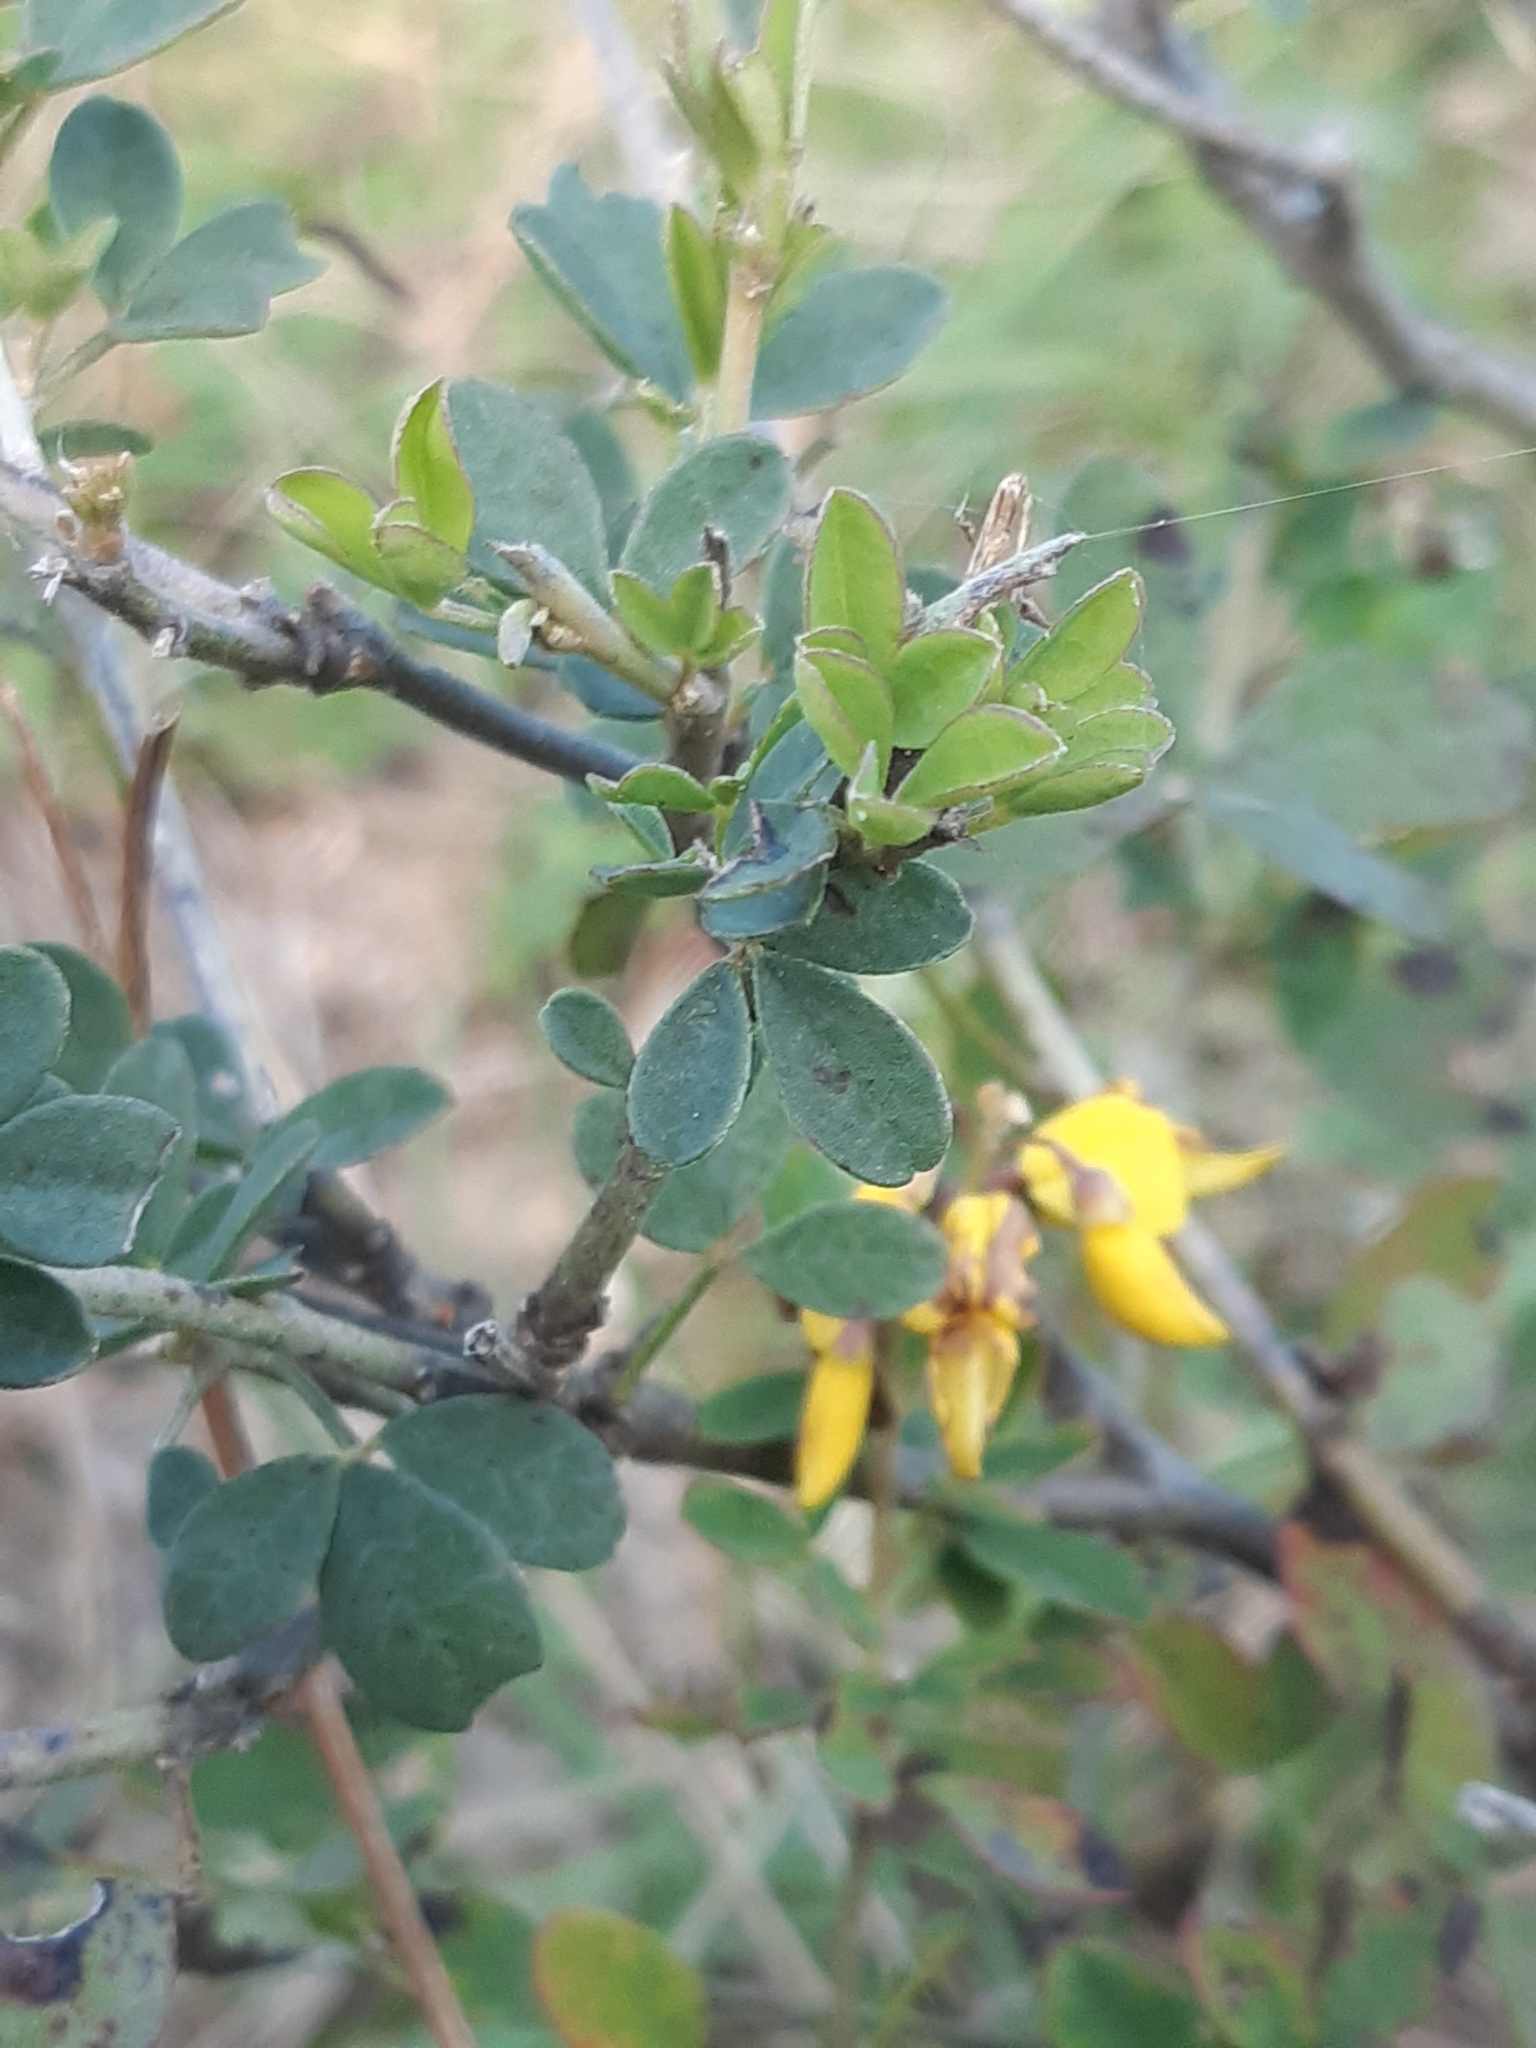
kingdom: Plantae
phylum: Tracheophyta
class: Magnoliopsida
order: Fabales
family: Fabaceae
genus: Cytisus
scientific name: Cytisus nigricans
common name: Black broom
